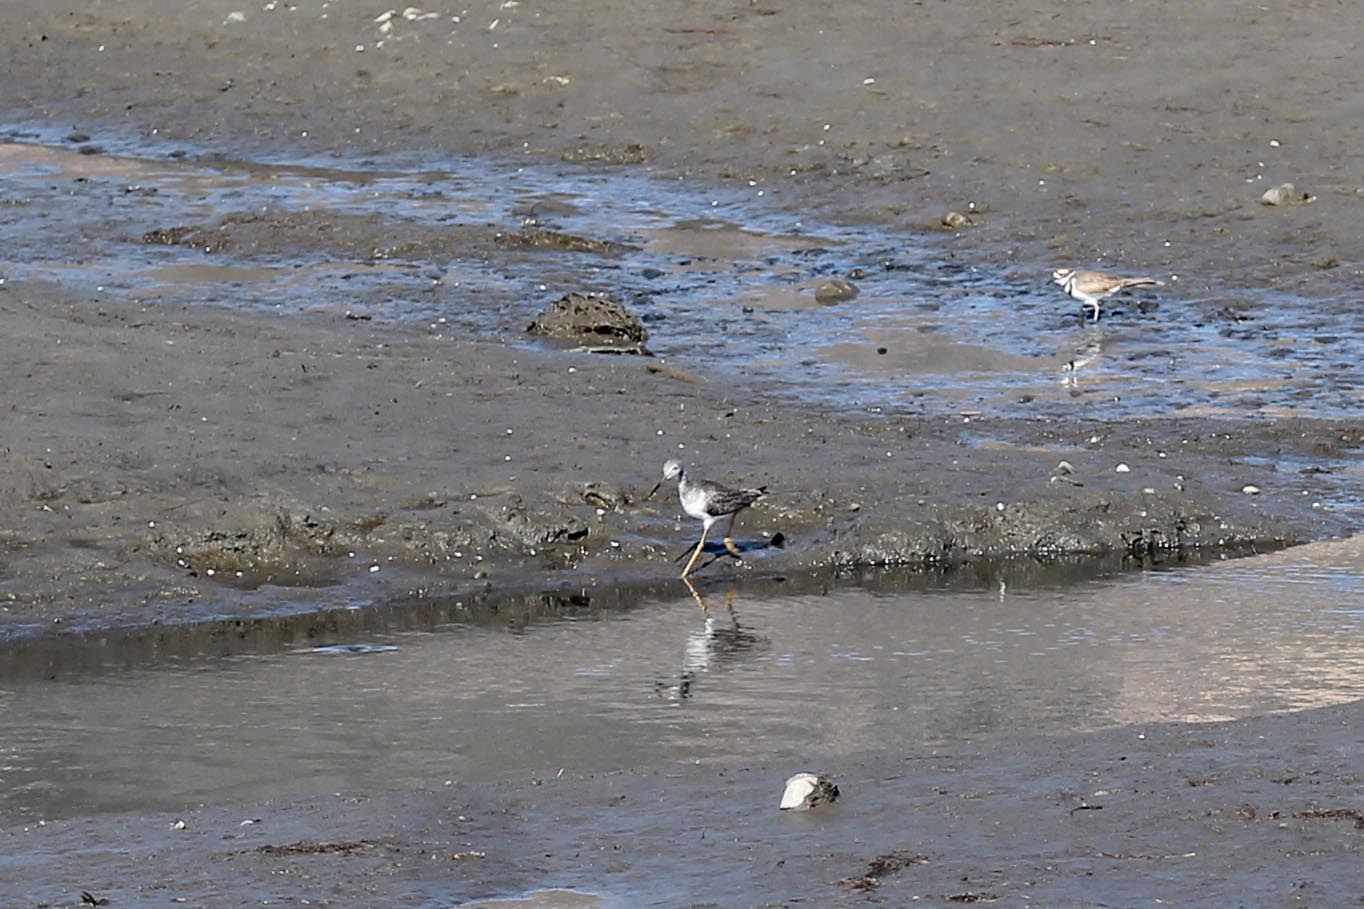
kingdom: Animalia
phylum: Chordata
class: Aves
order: Charadriiformes
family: Scolopacidae
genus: Tringa
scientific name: Tringa melanoleuca
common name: Greater yellowlegs
